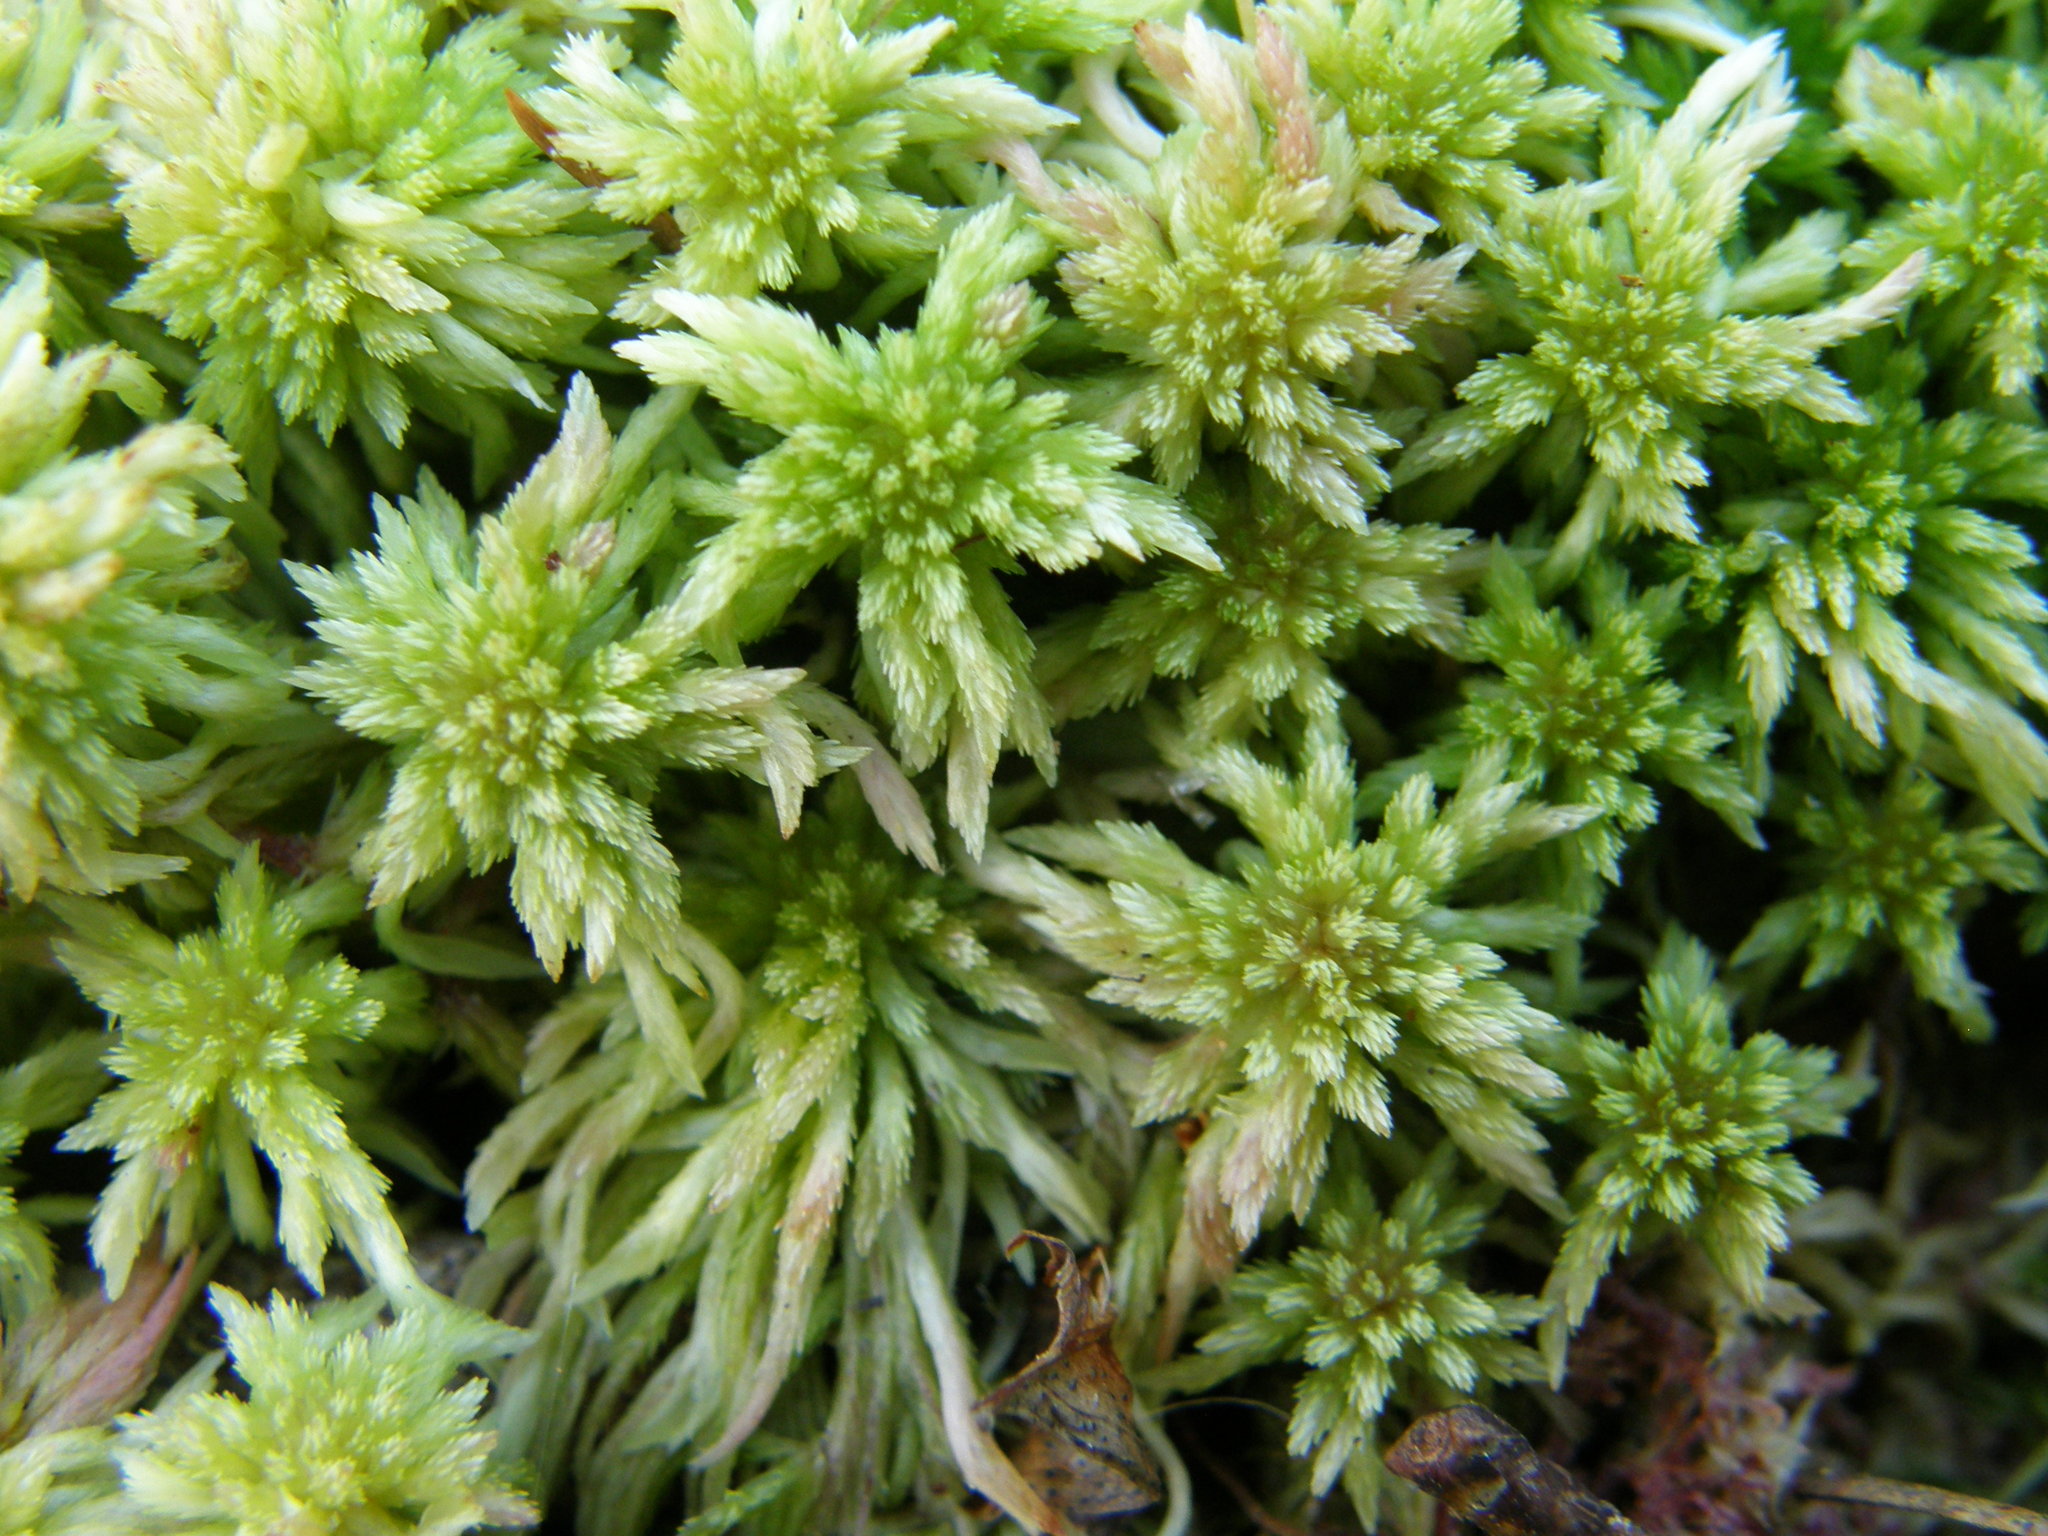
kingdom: Plantae
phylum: Bryophyta
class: Sphagnopsida
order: Sphagnales
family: Sphagnaceae
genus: Sphagnum
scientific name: Sphagnum
